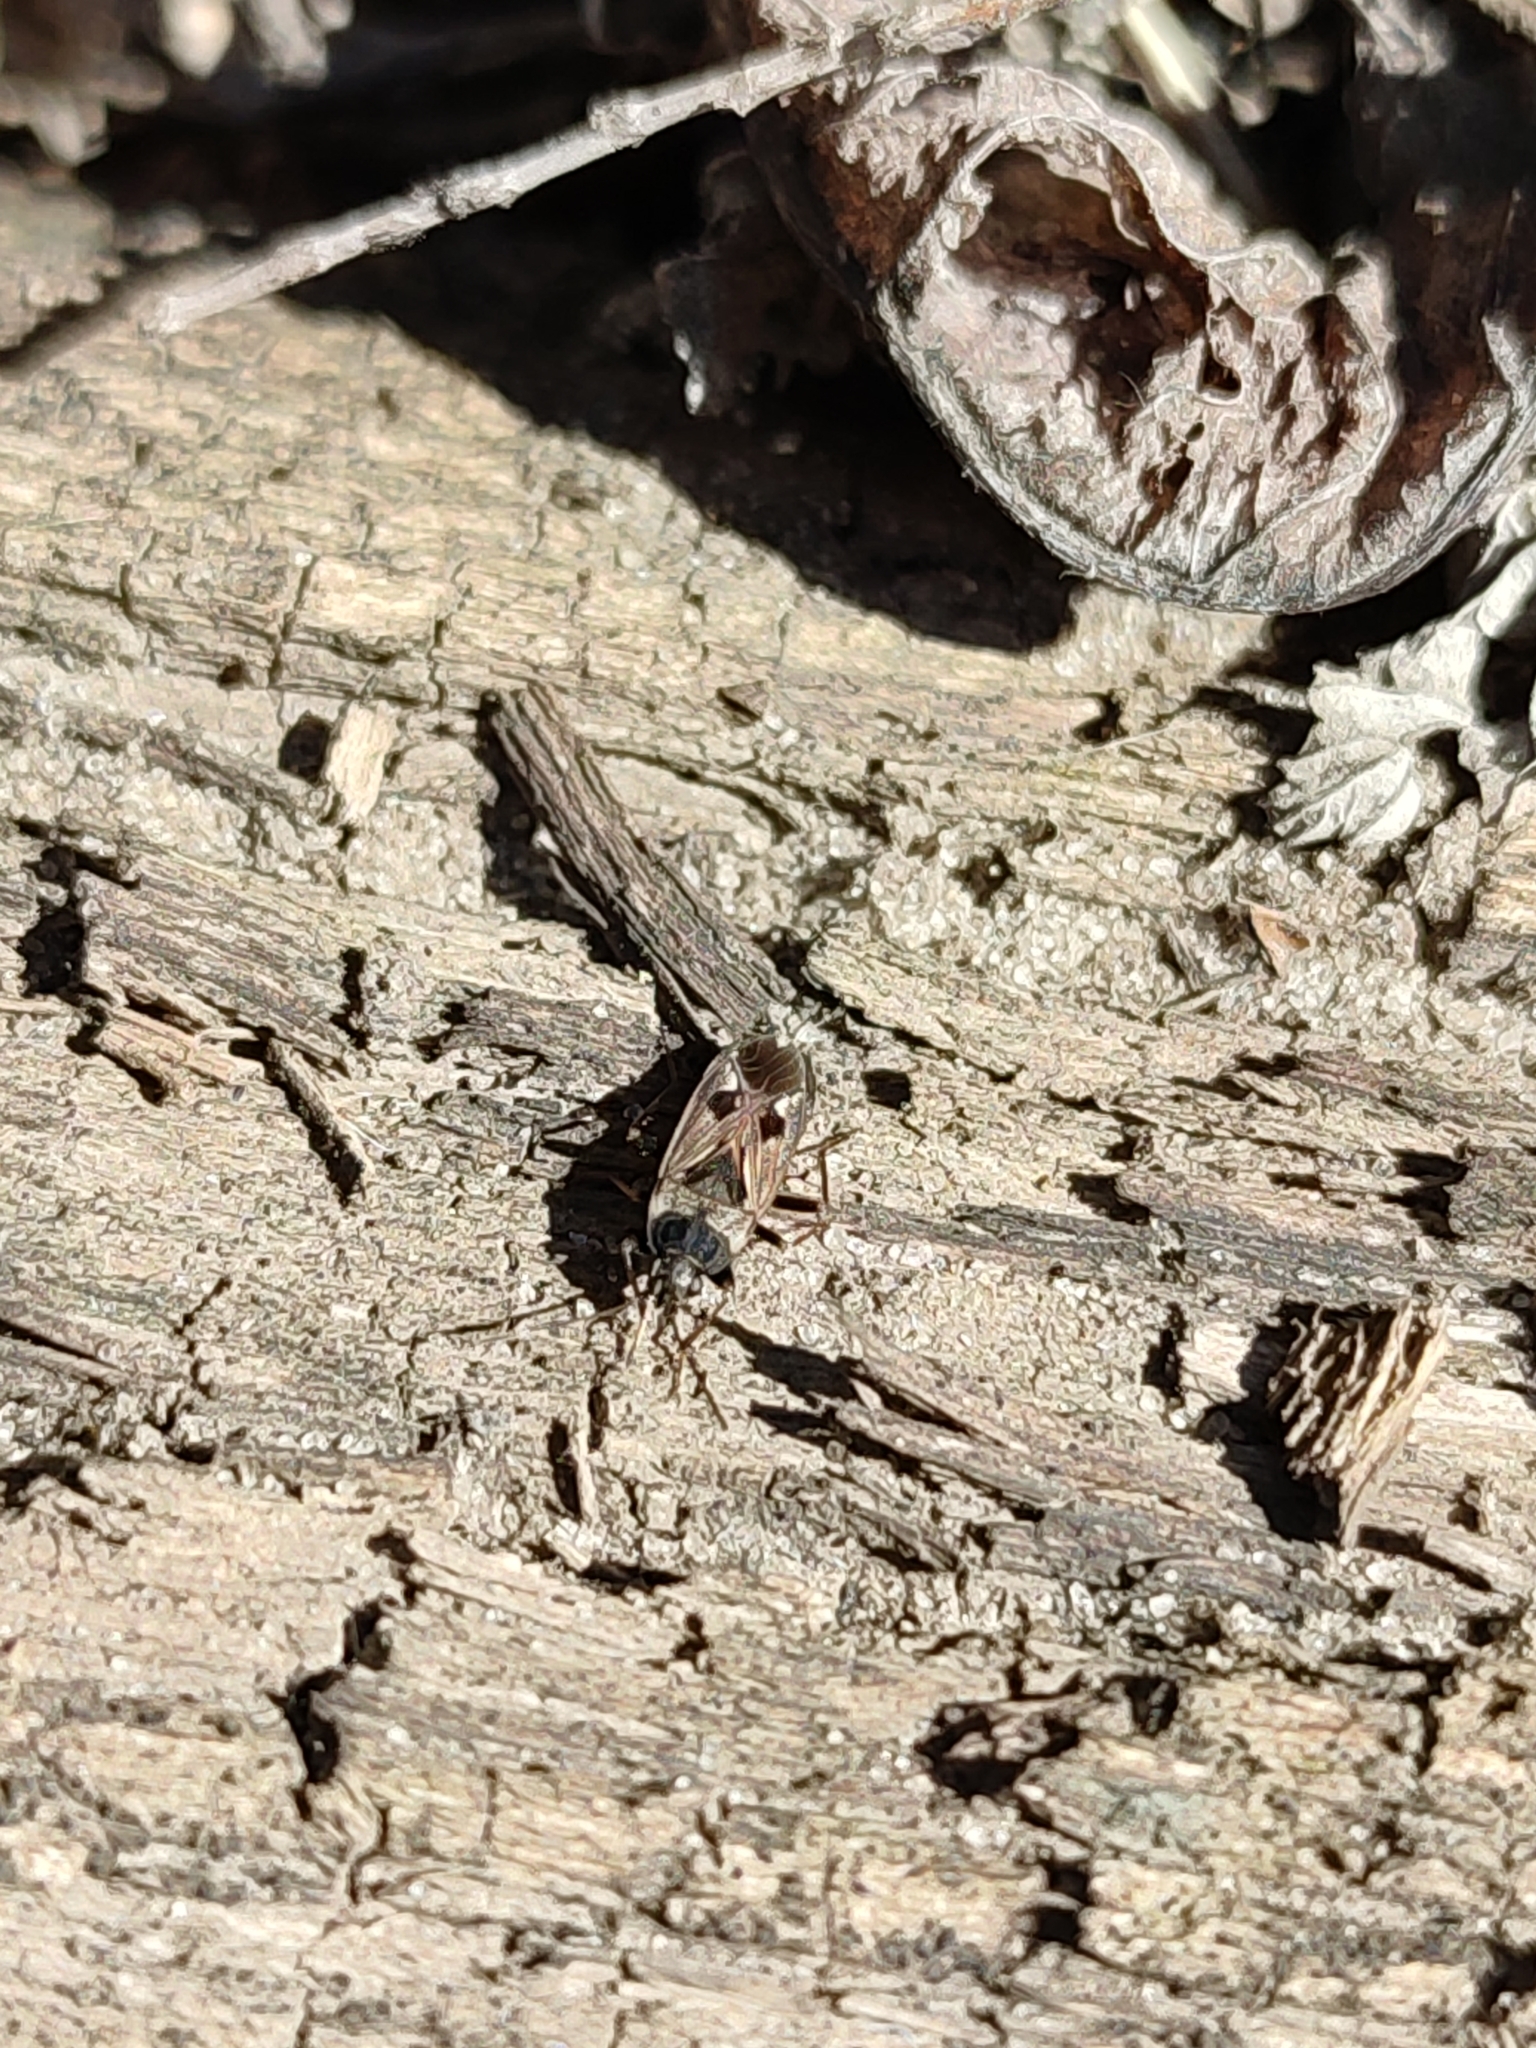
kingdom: Animalia
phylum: Arthropoda
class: Insecta
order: Hemiptera
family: Rhyparochromidae
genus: Rhyparochromus
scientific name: Rhyparochromus vulgaris
